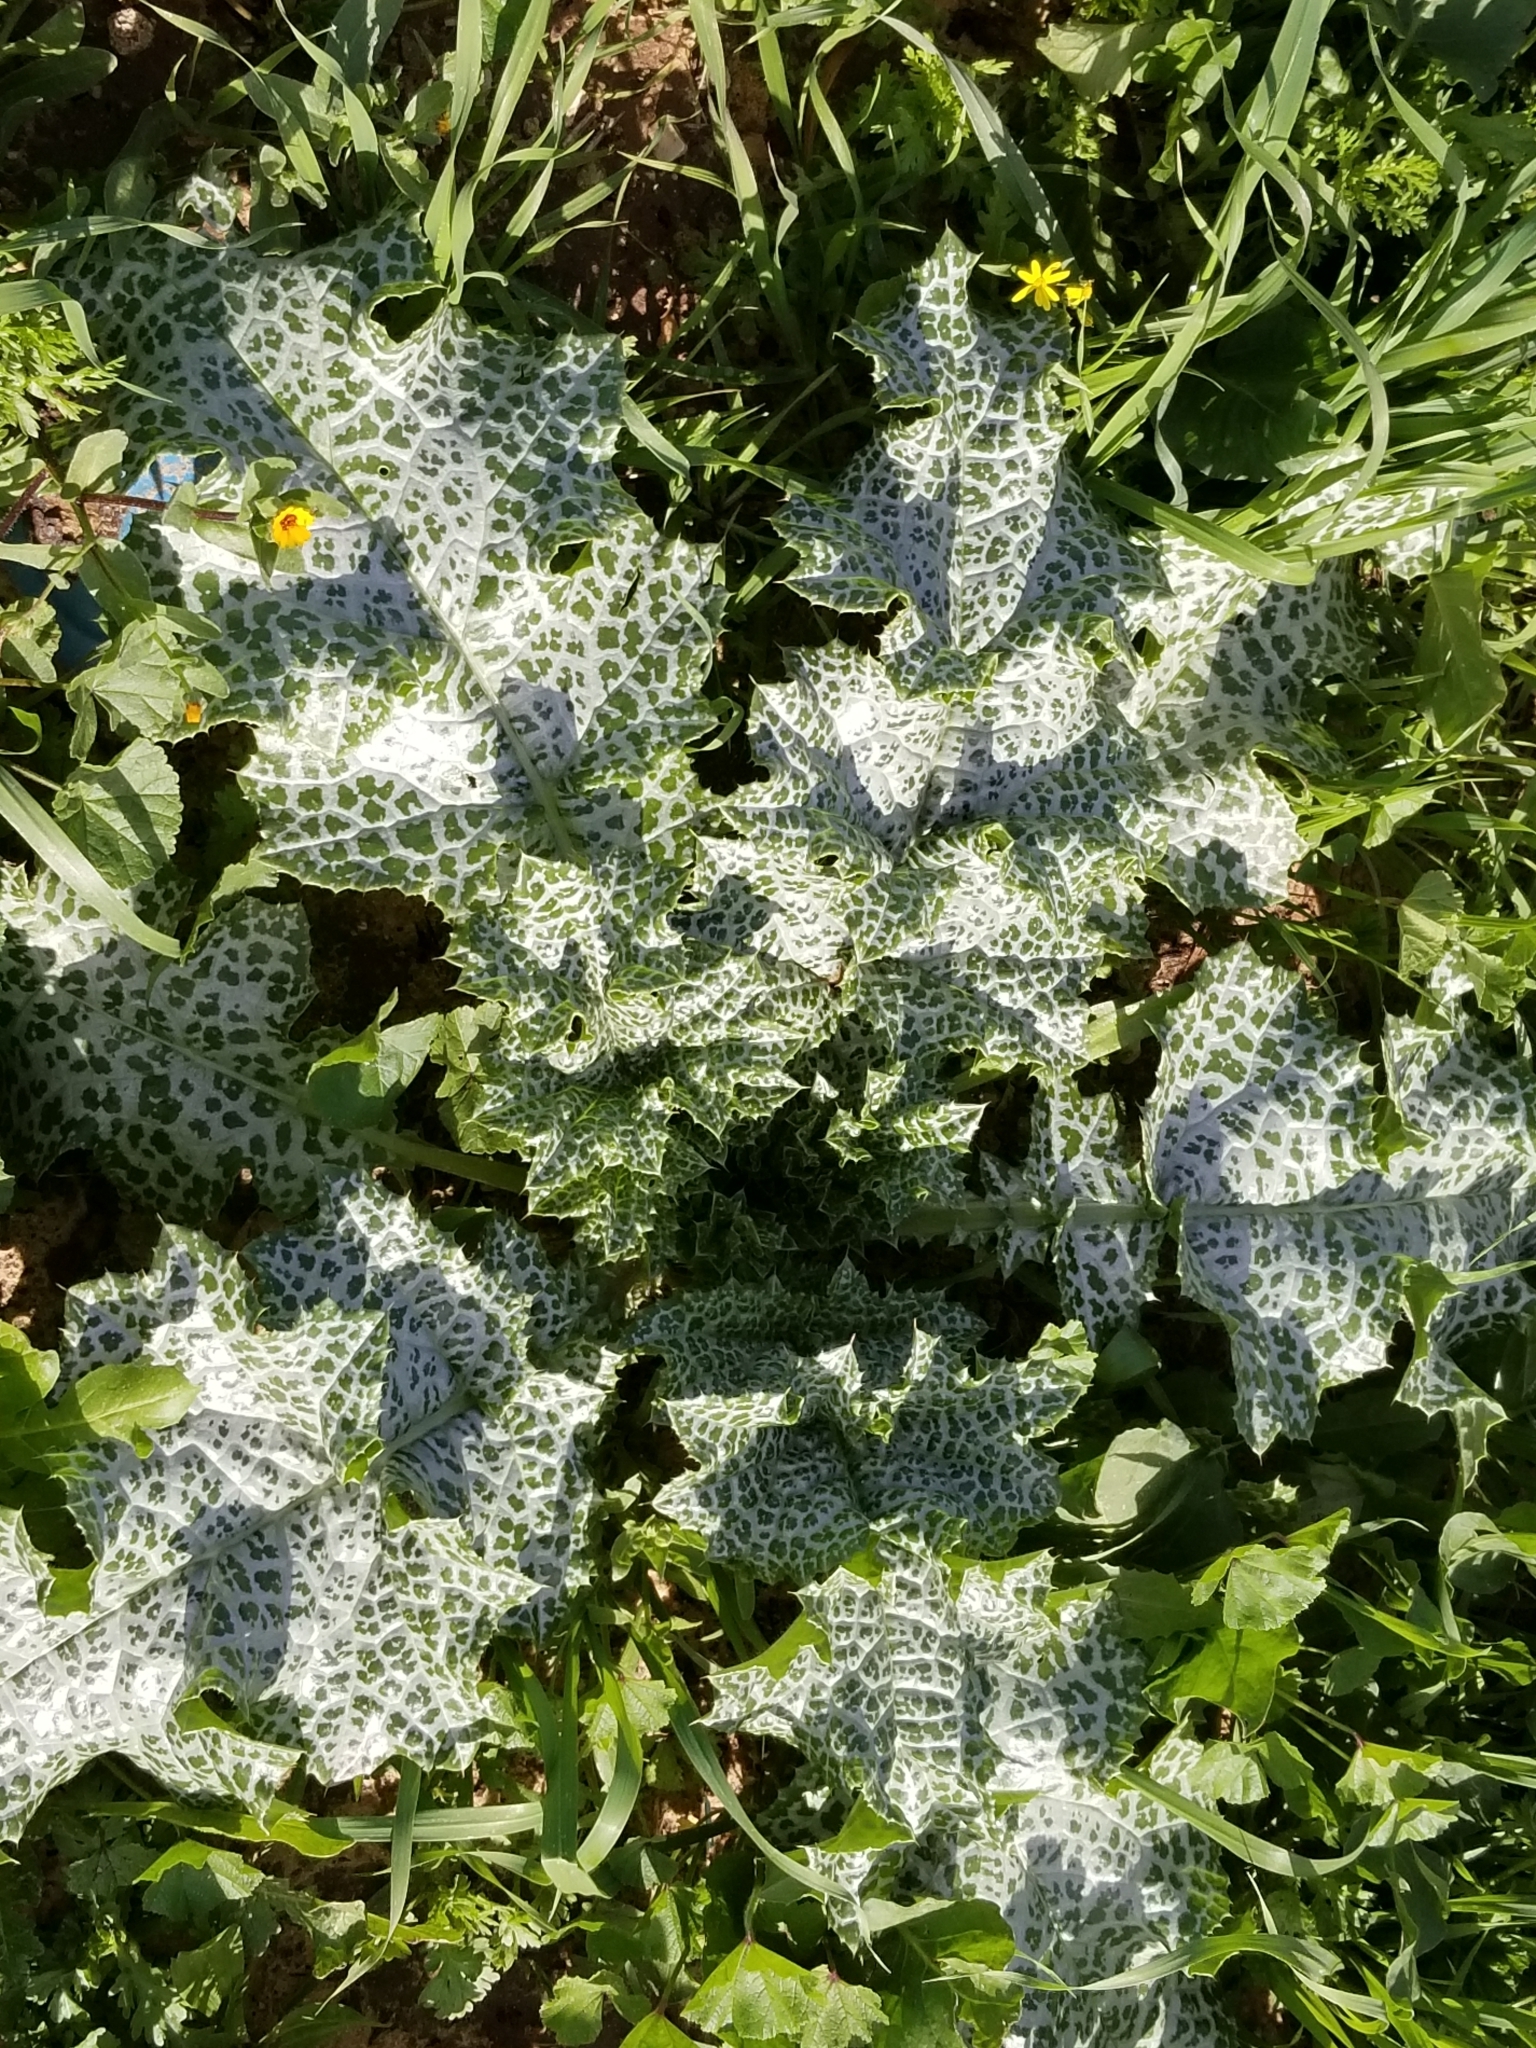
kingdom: Plantae
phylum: Tracheophyta
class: Magnoliopsida
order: Asterales
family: Asteraceae
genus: Silybum
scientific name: Silybum marianum
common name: Milk thistle
